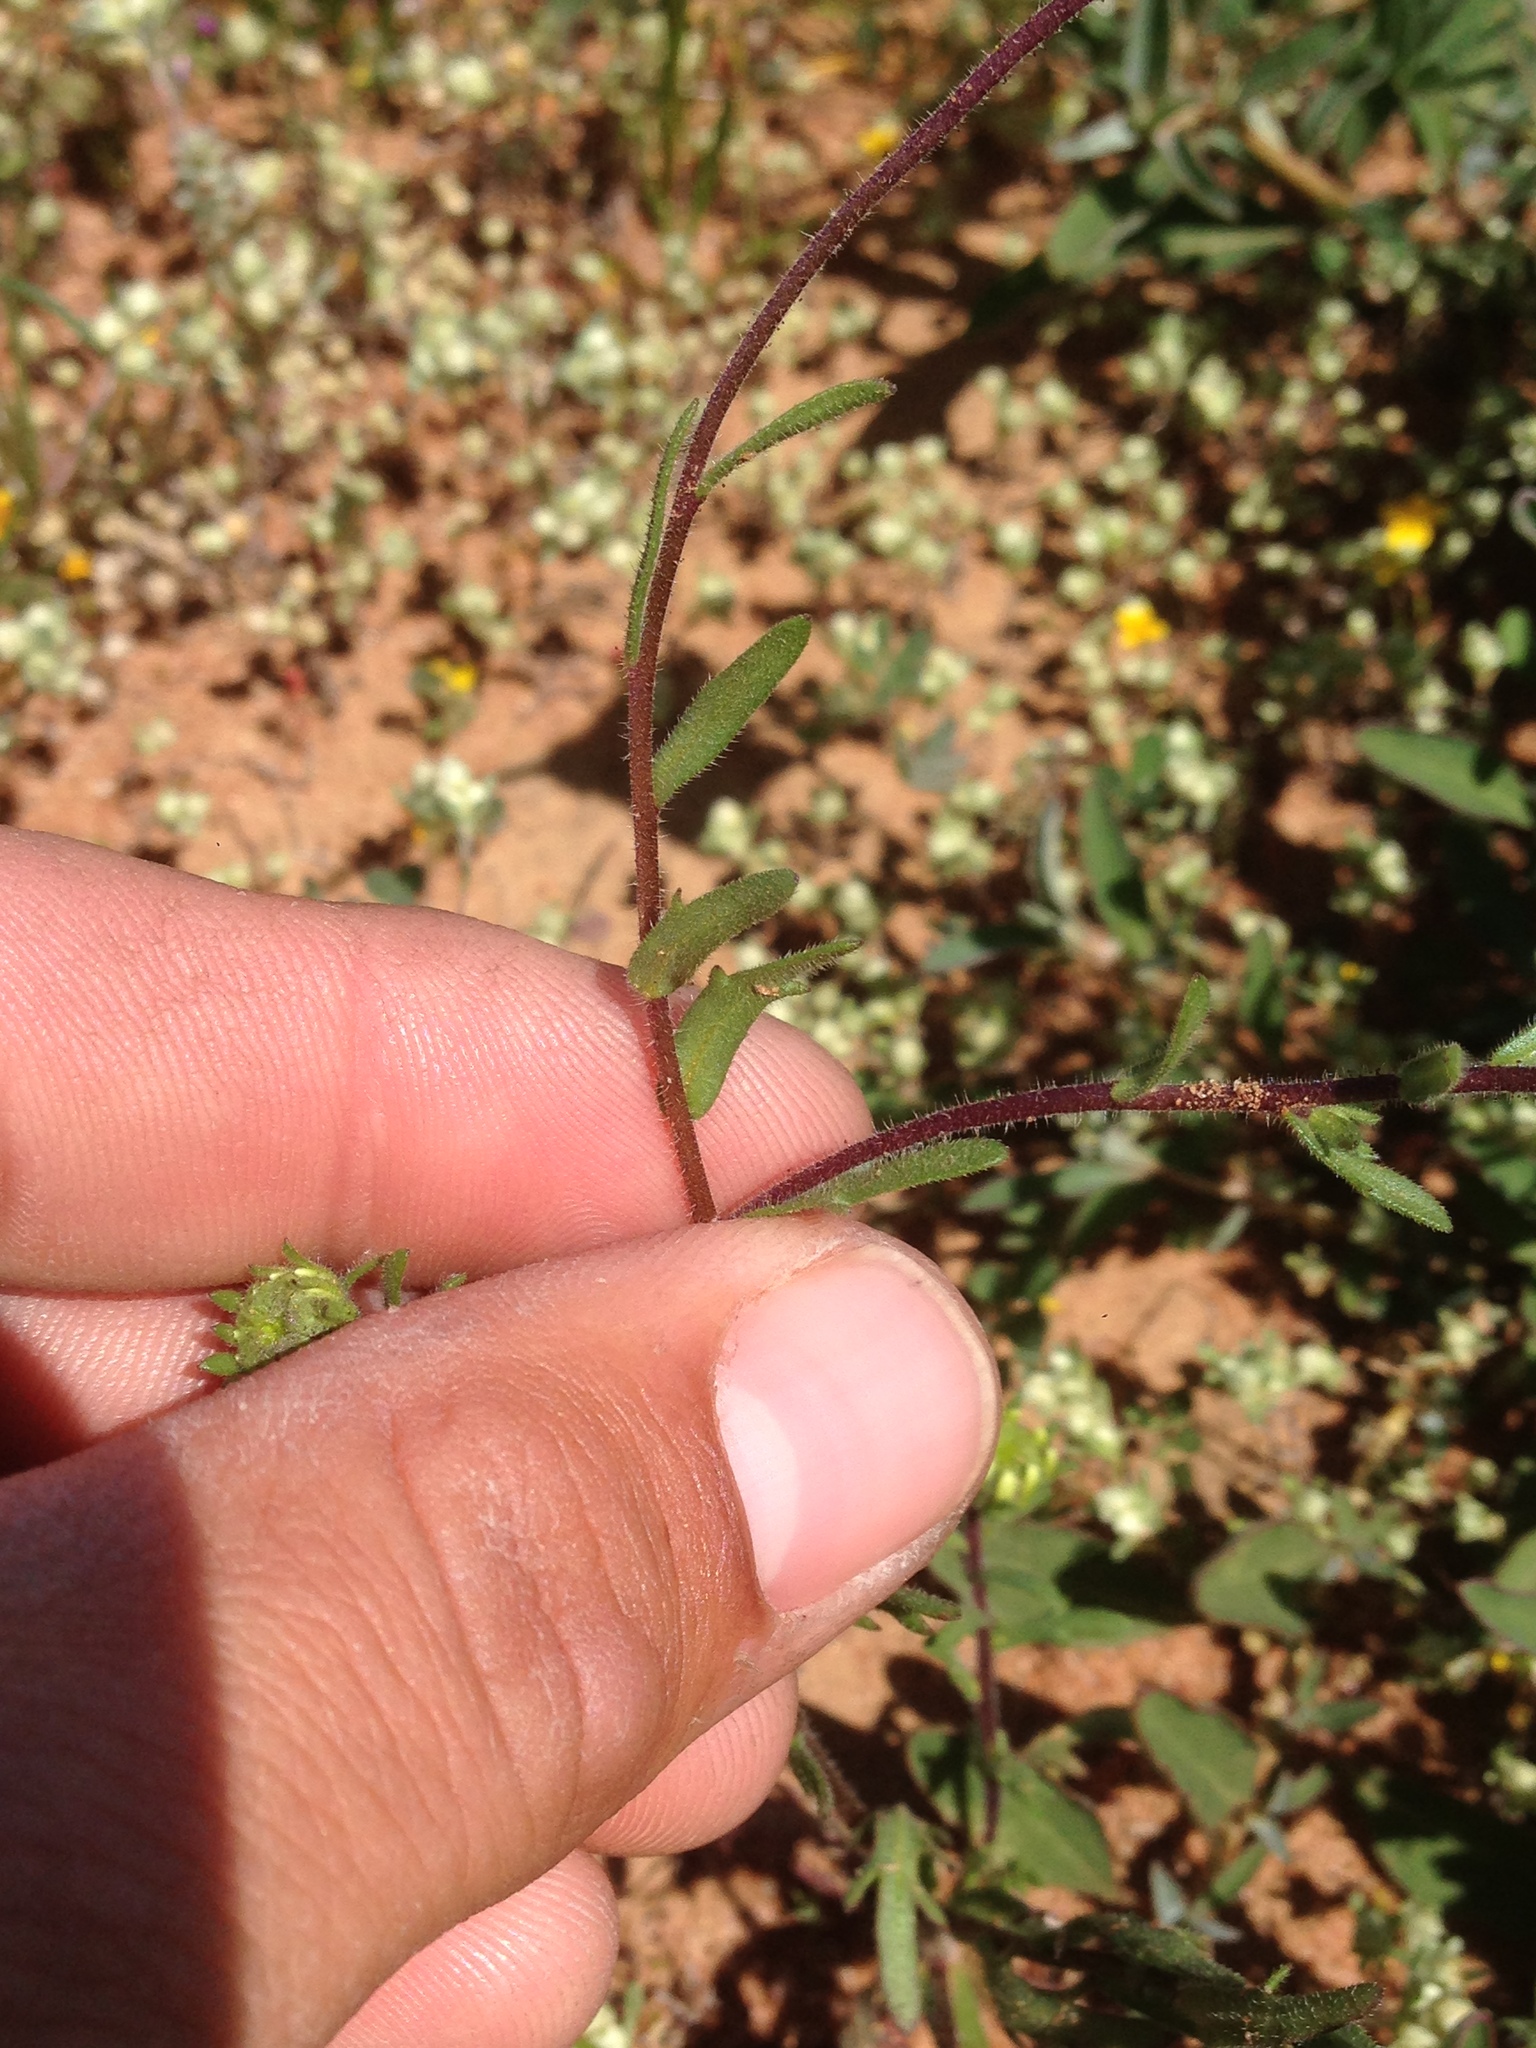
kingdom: Plantae
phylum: Tracheophyta
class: Magnoliopsida
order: Asterales
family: Asteraceae
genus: Layia
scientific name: Layia platyglossa
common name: Tidy-tips
